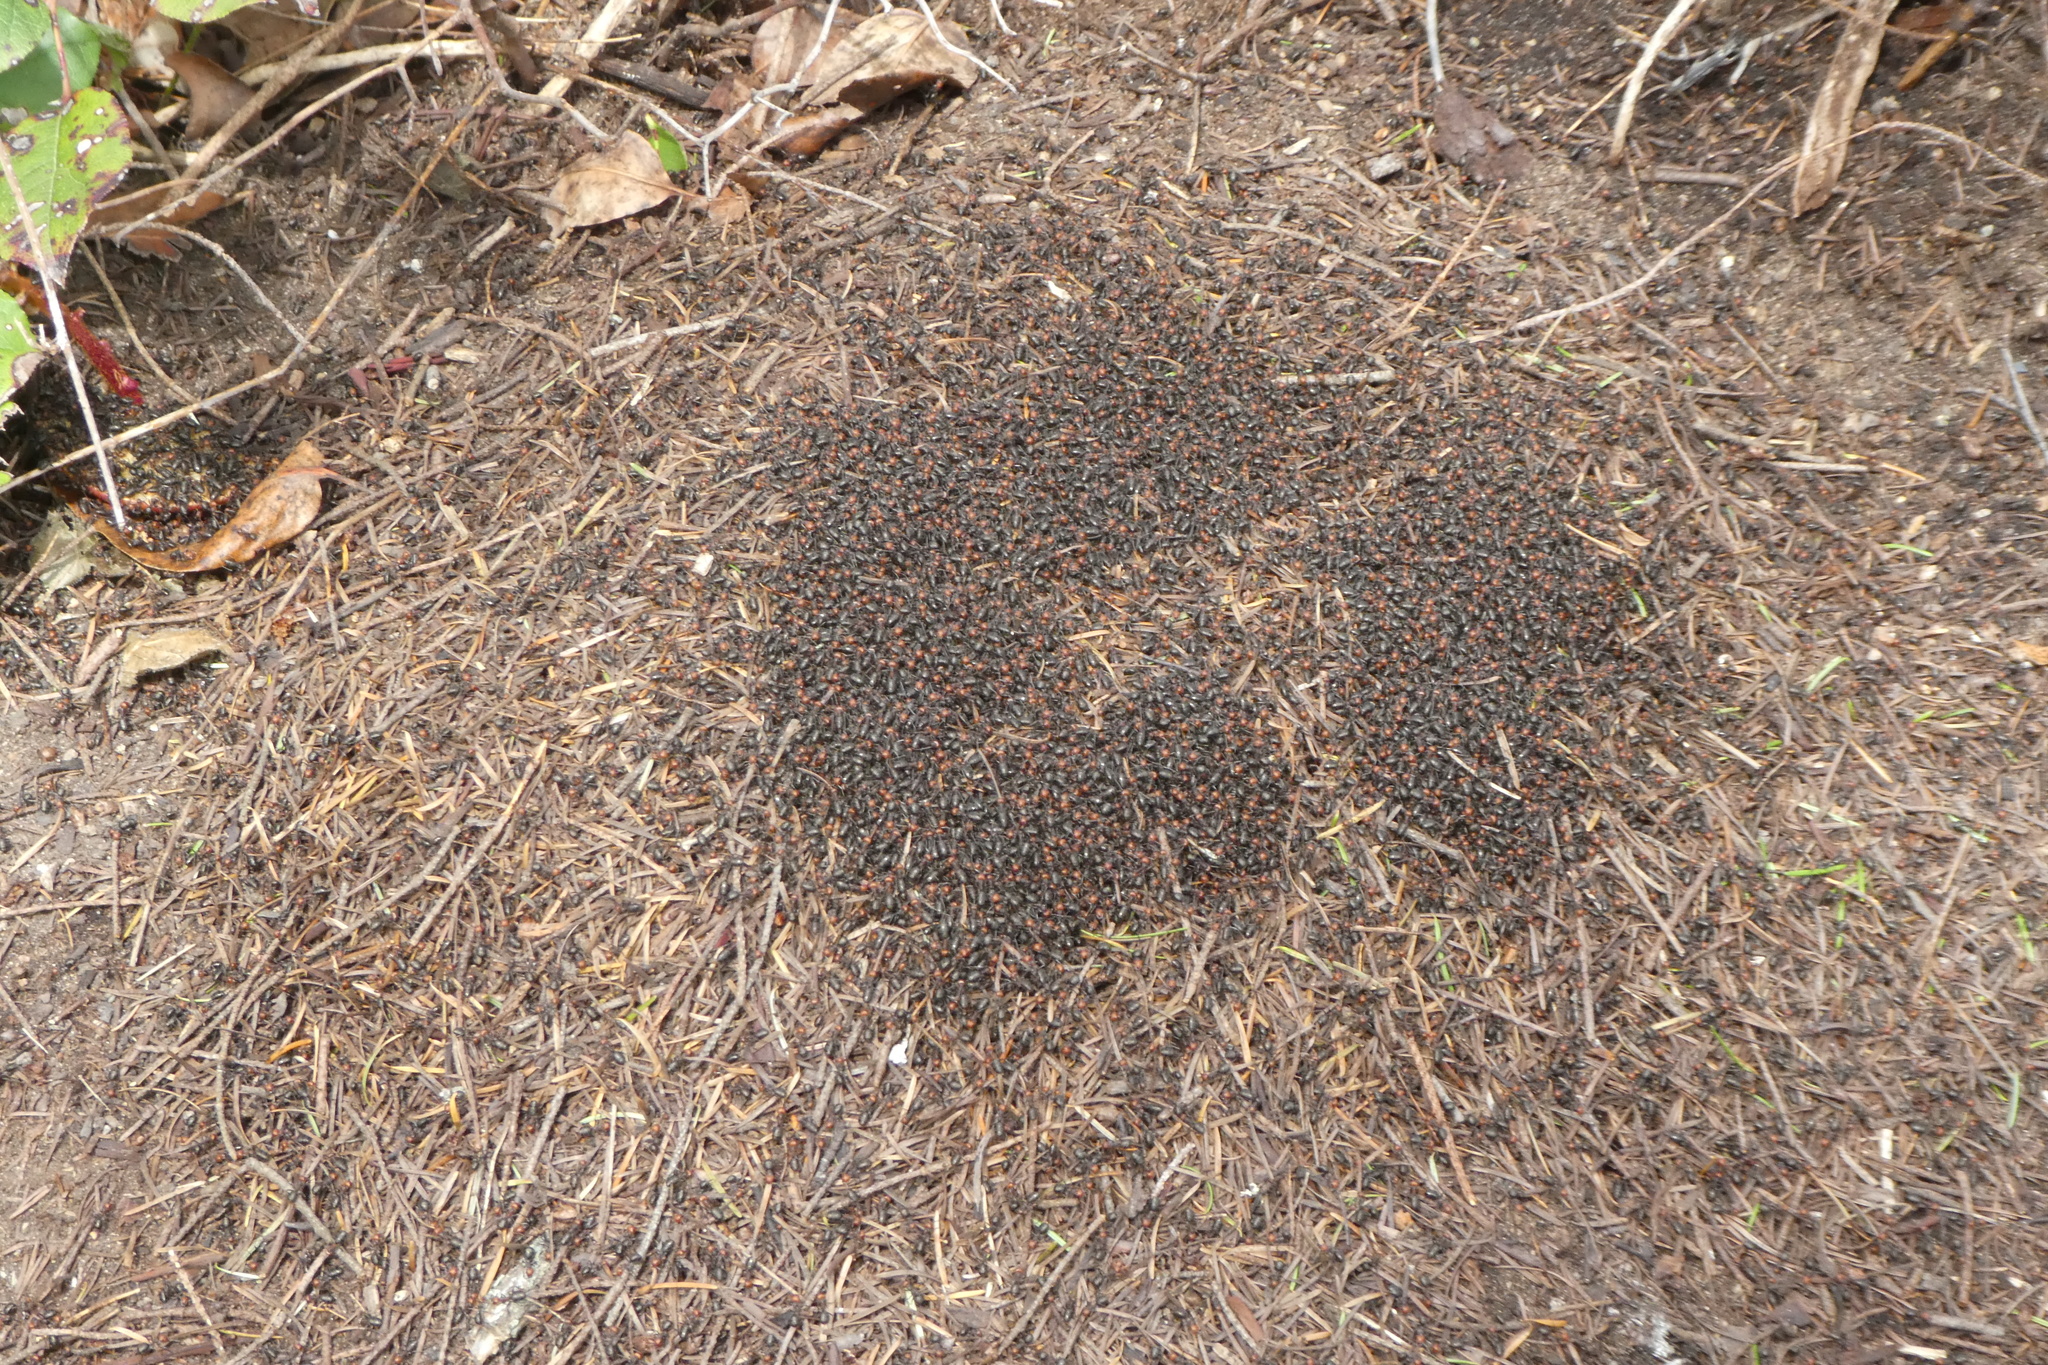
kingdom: Animalia
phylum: Arthropoda
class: Insecta
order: Hymenoptera
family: Formicidae
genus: Formica
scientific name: Formica obscuripes
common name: Western thatching ant
